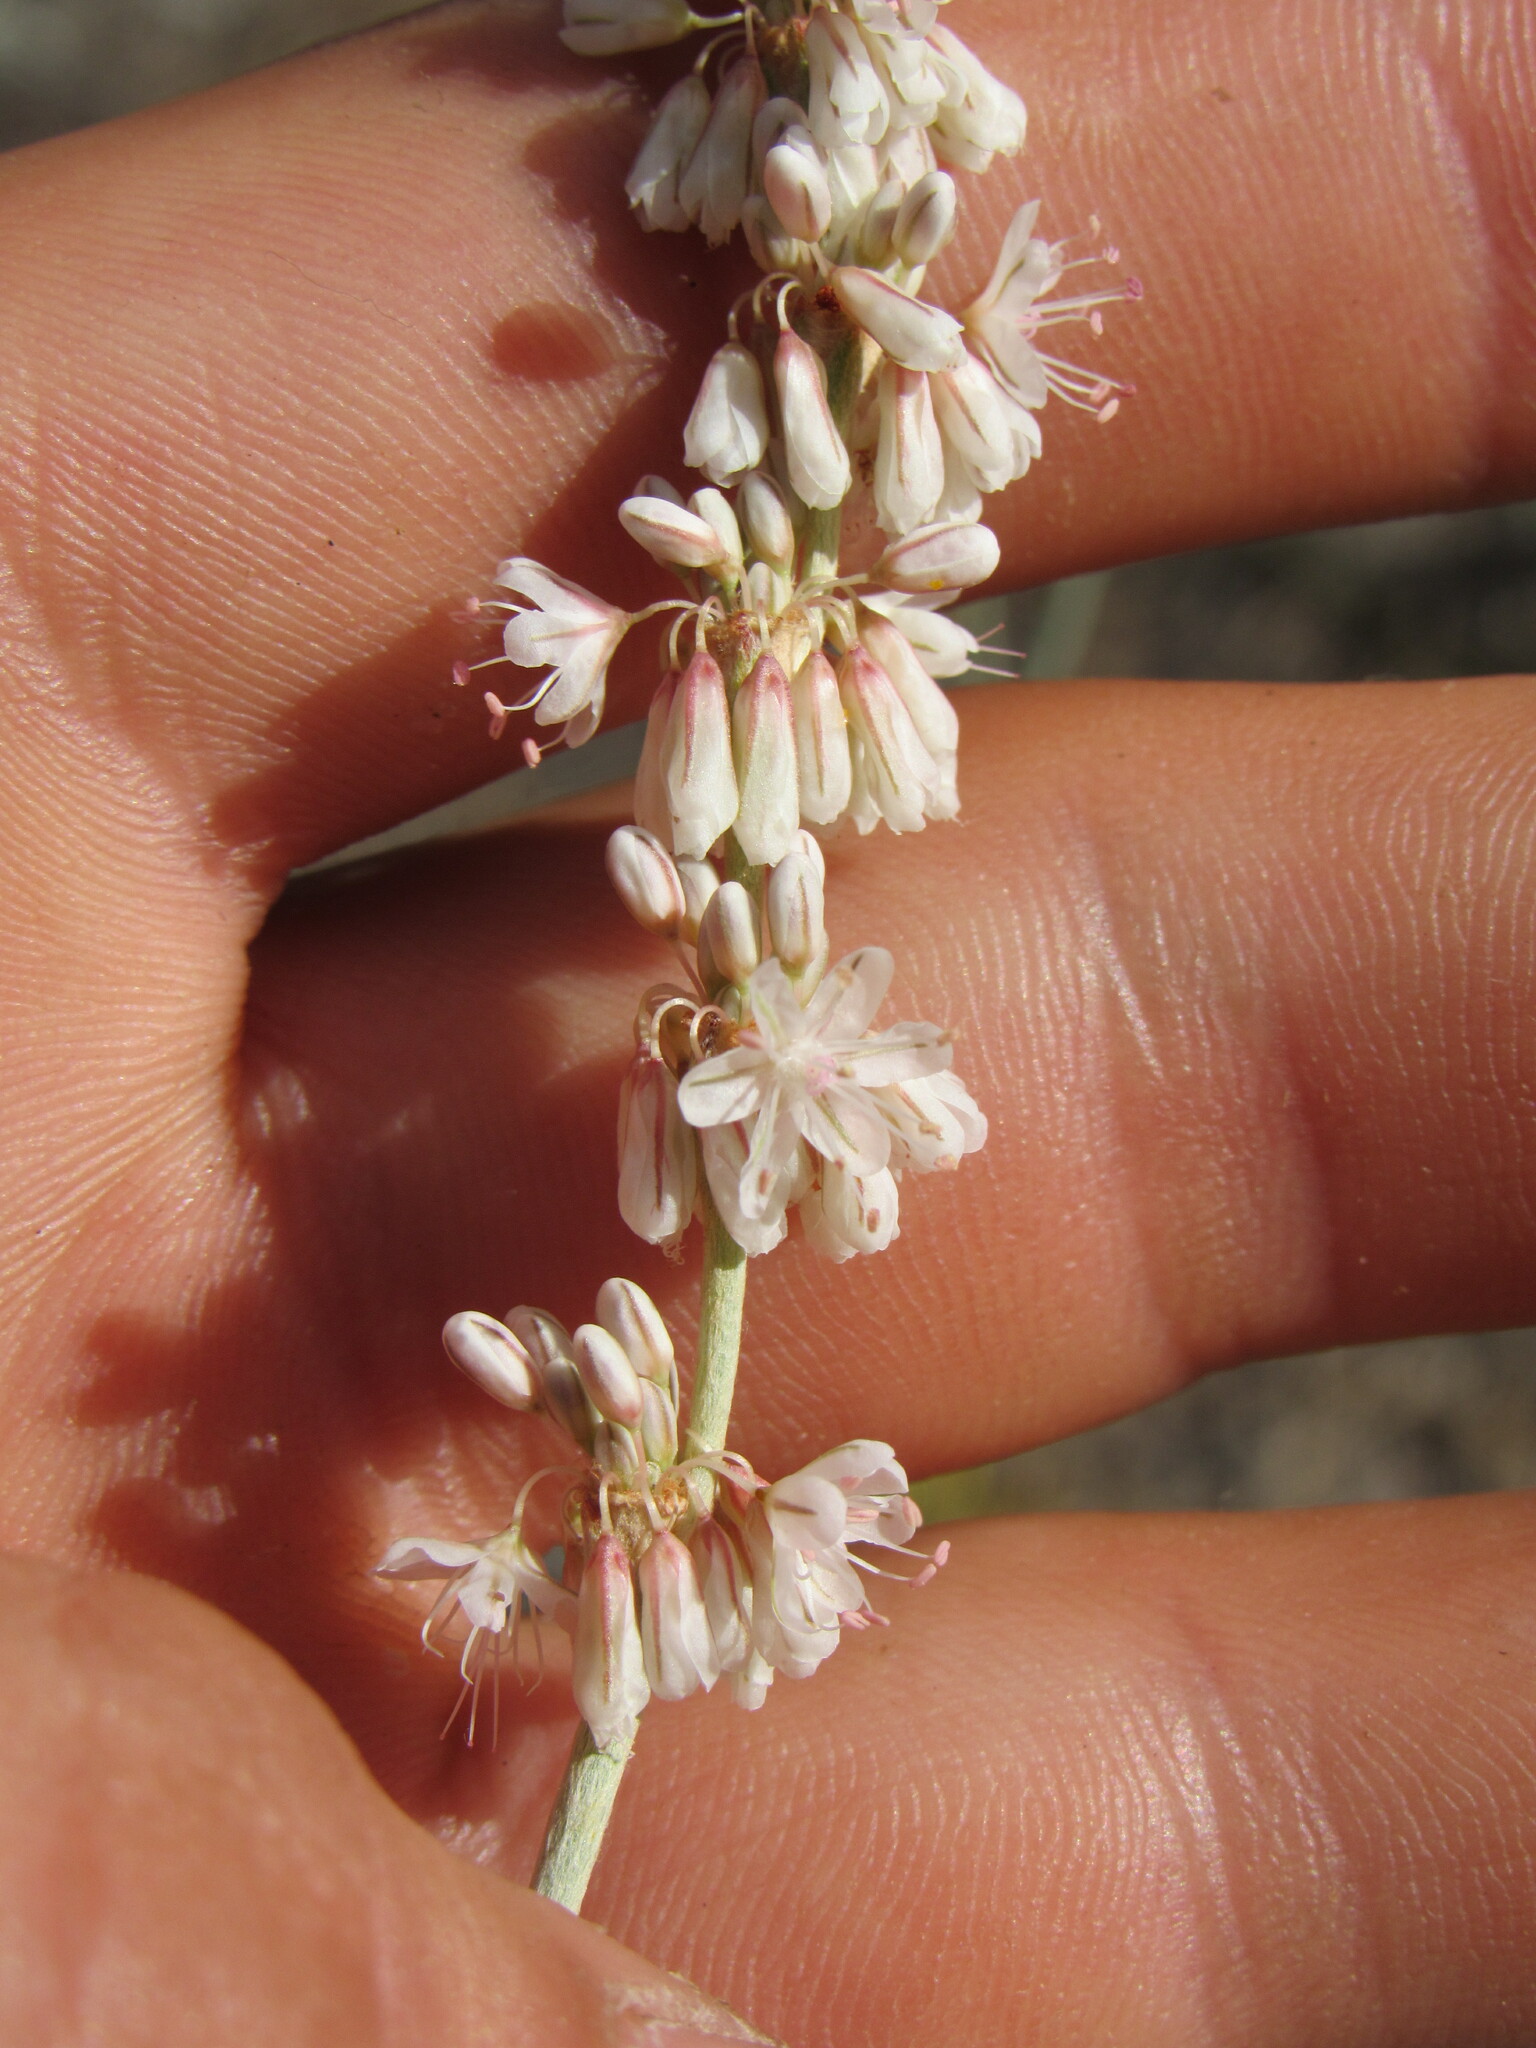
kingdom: Plantae
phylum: Tracheophyta
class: Magnoliopsida
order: Caryophyllales
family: Polygonaceae
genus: Eriogonum
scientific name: Eriogonum racemosum
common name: Redroot wild buckwheat
